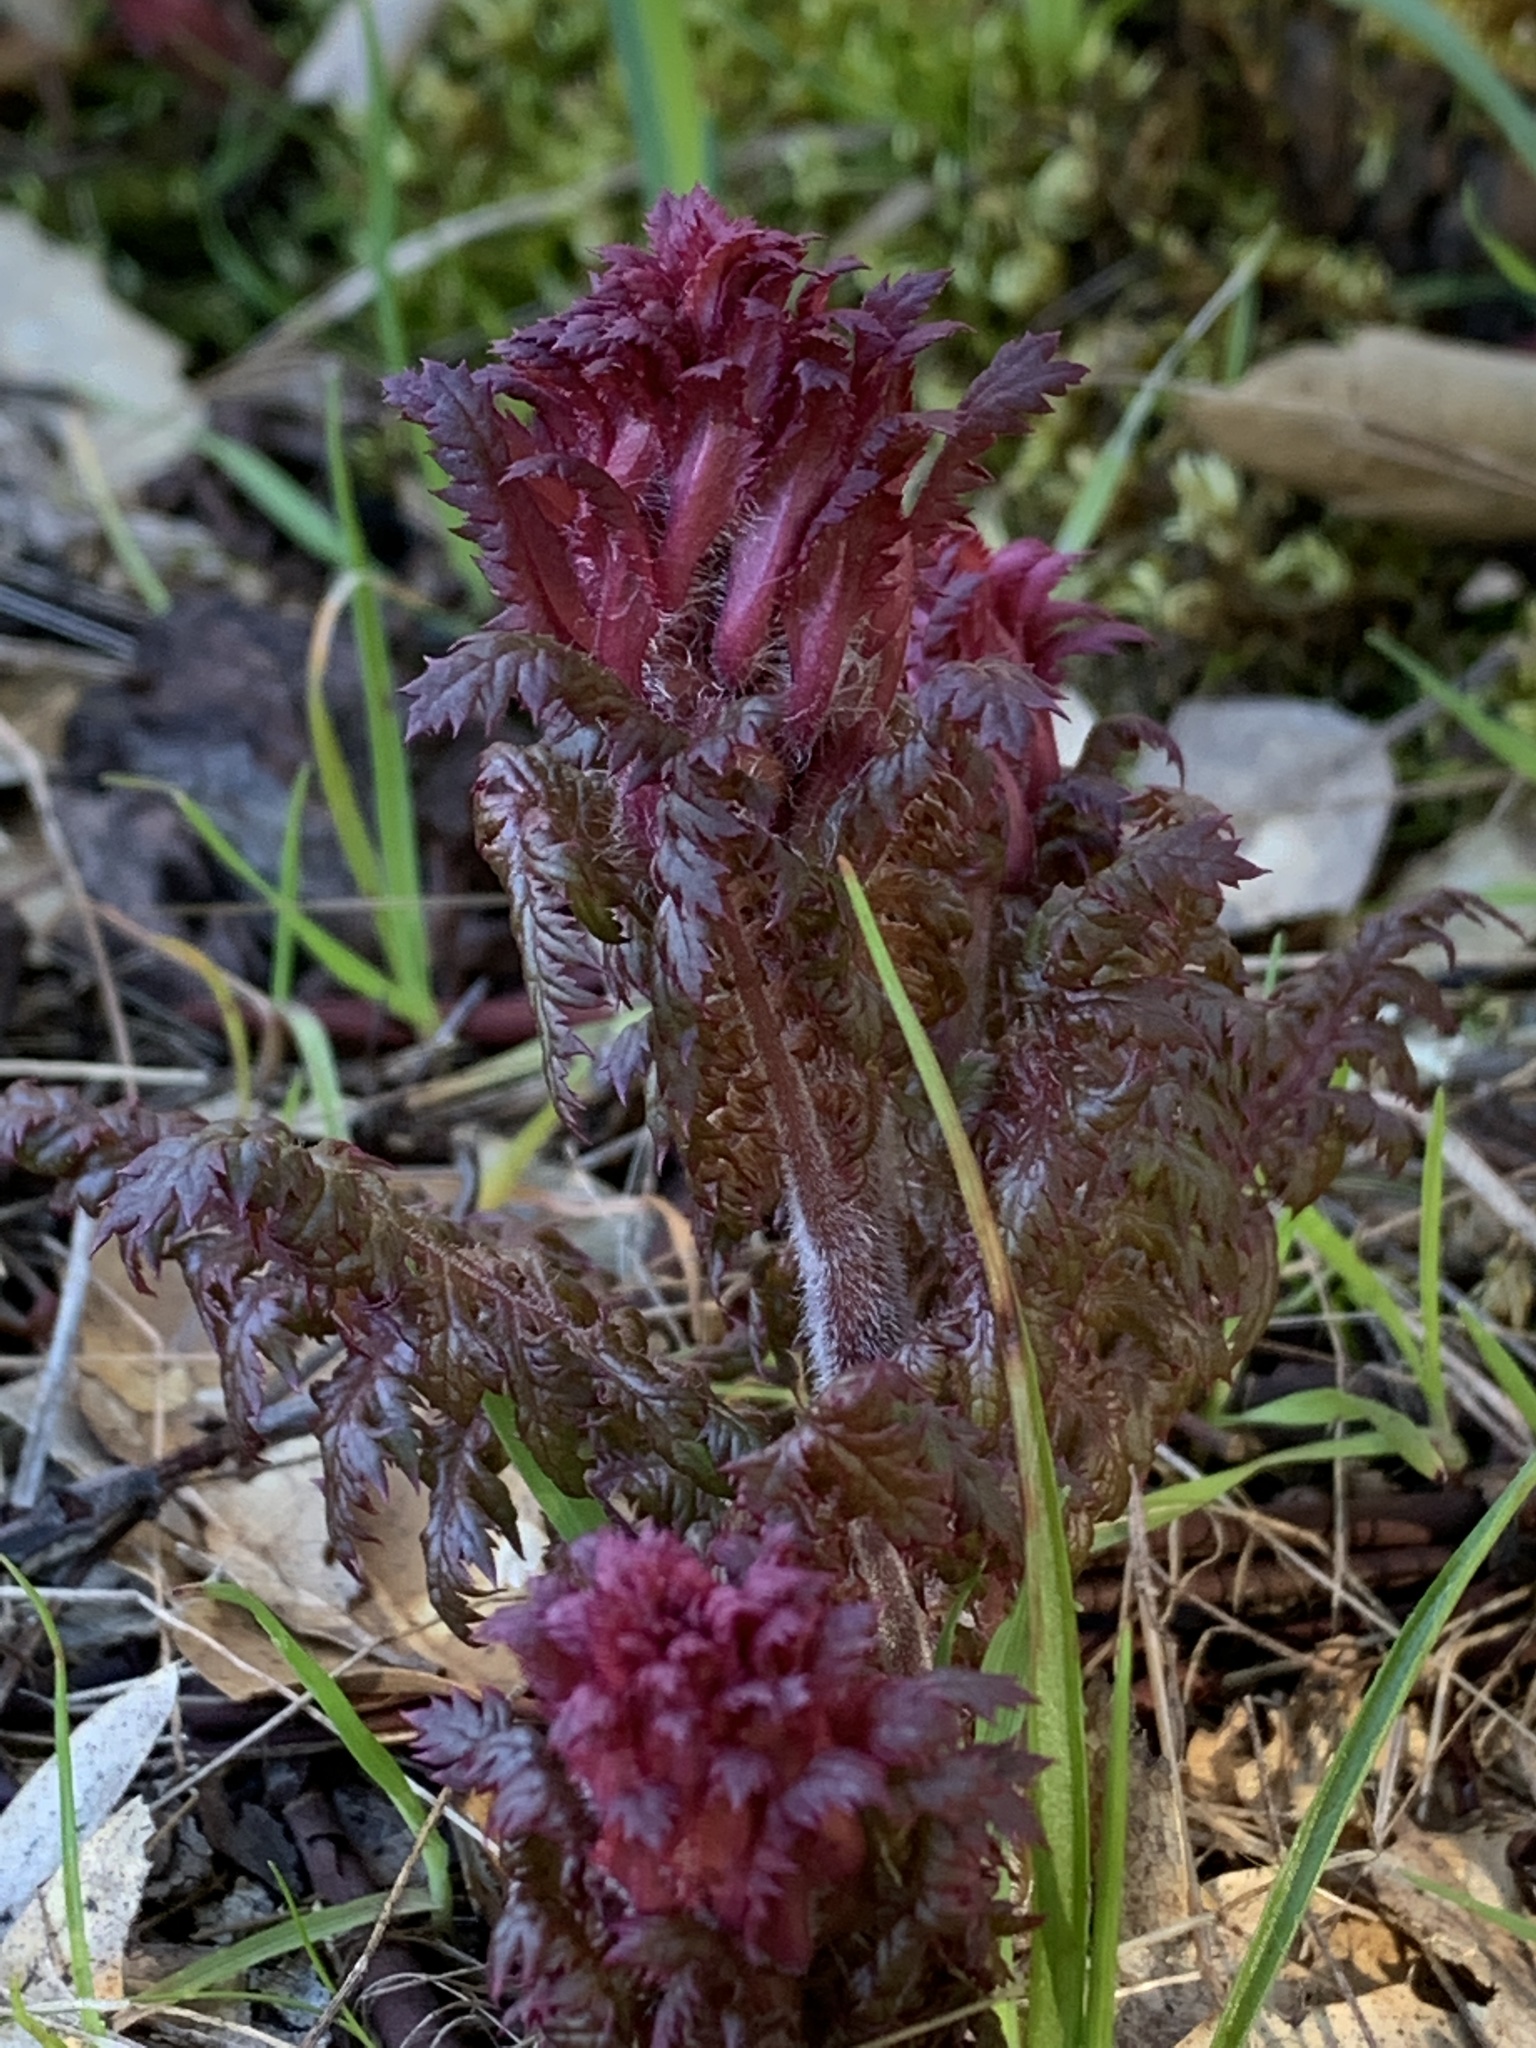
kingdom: Plantae
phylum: Tracheophyta
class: Magnoliopsida
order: Lamiales
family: Orobanchaceae
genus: Pedicularis
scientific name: Pedicularis densiflora
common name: Indian warrior
